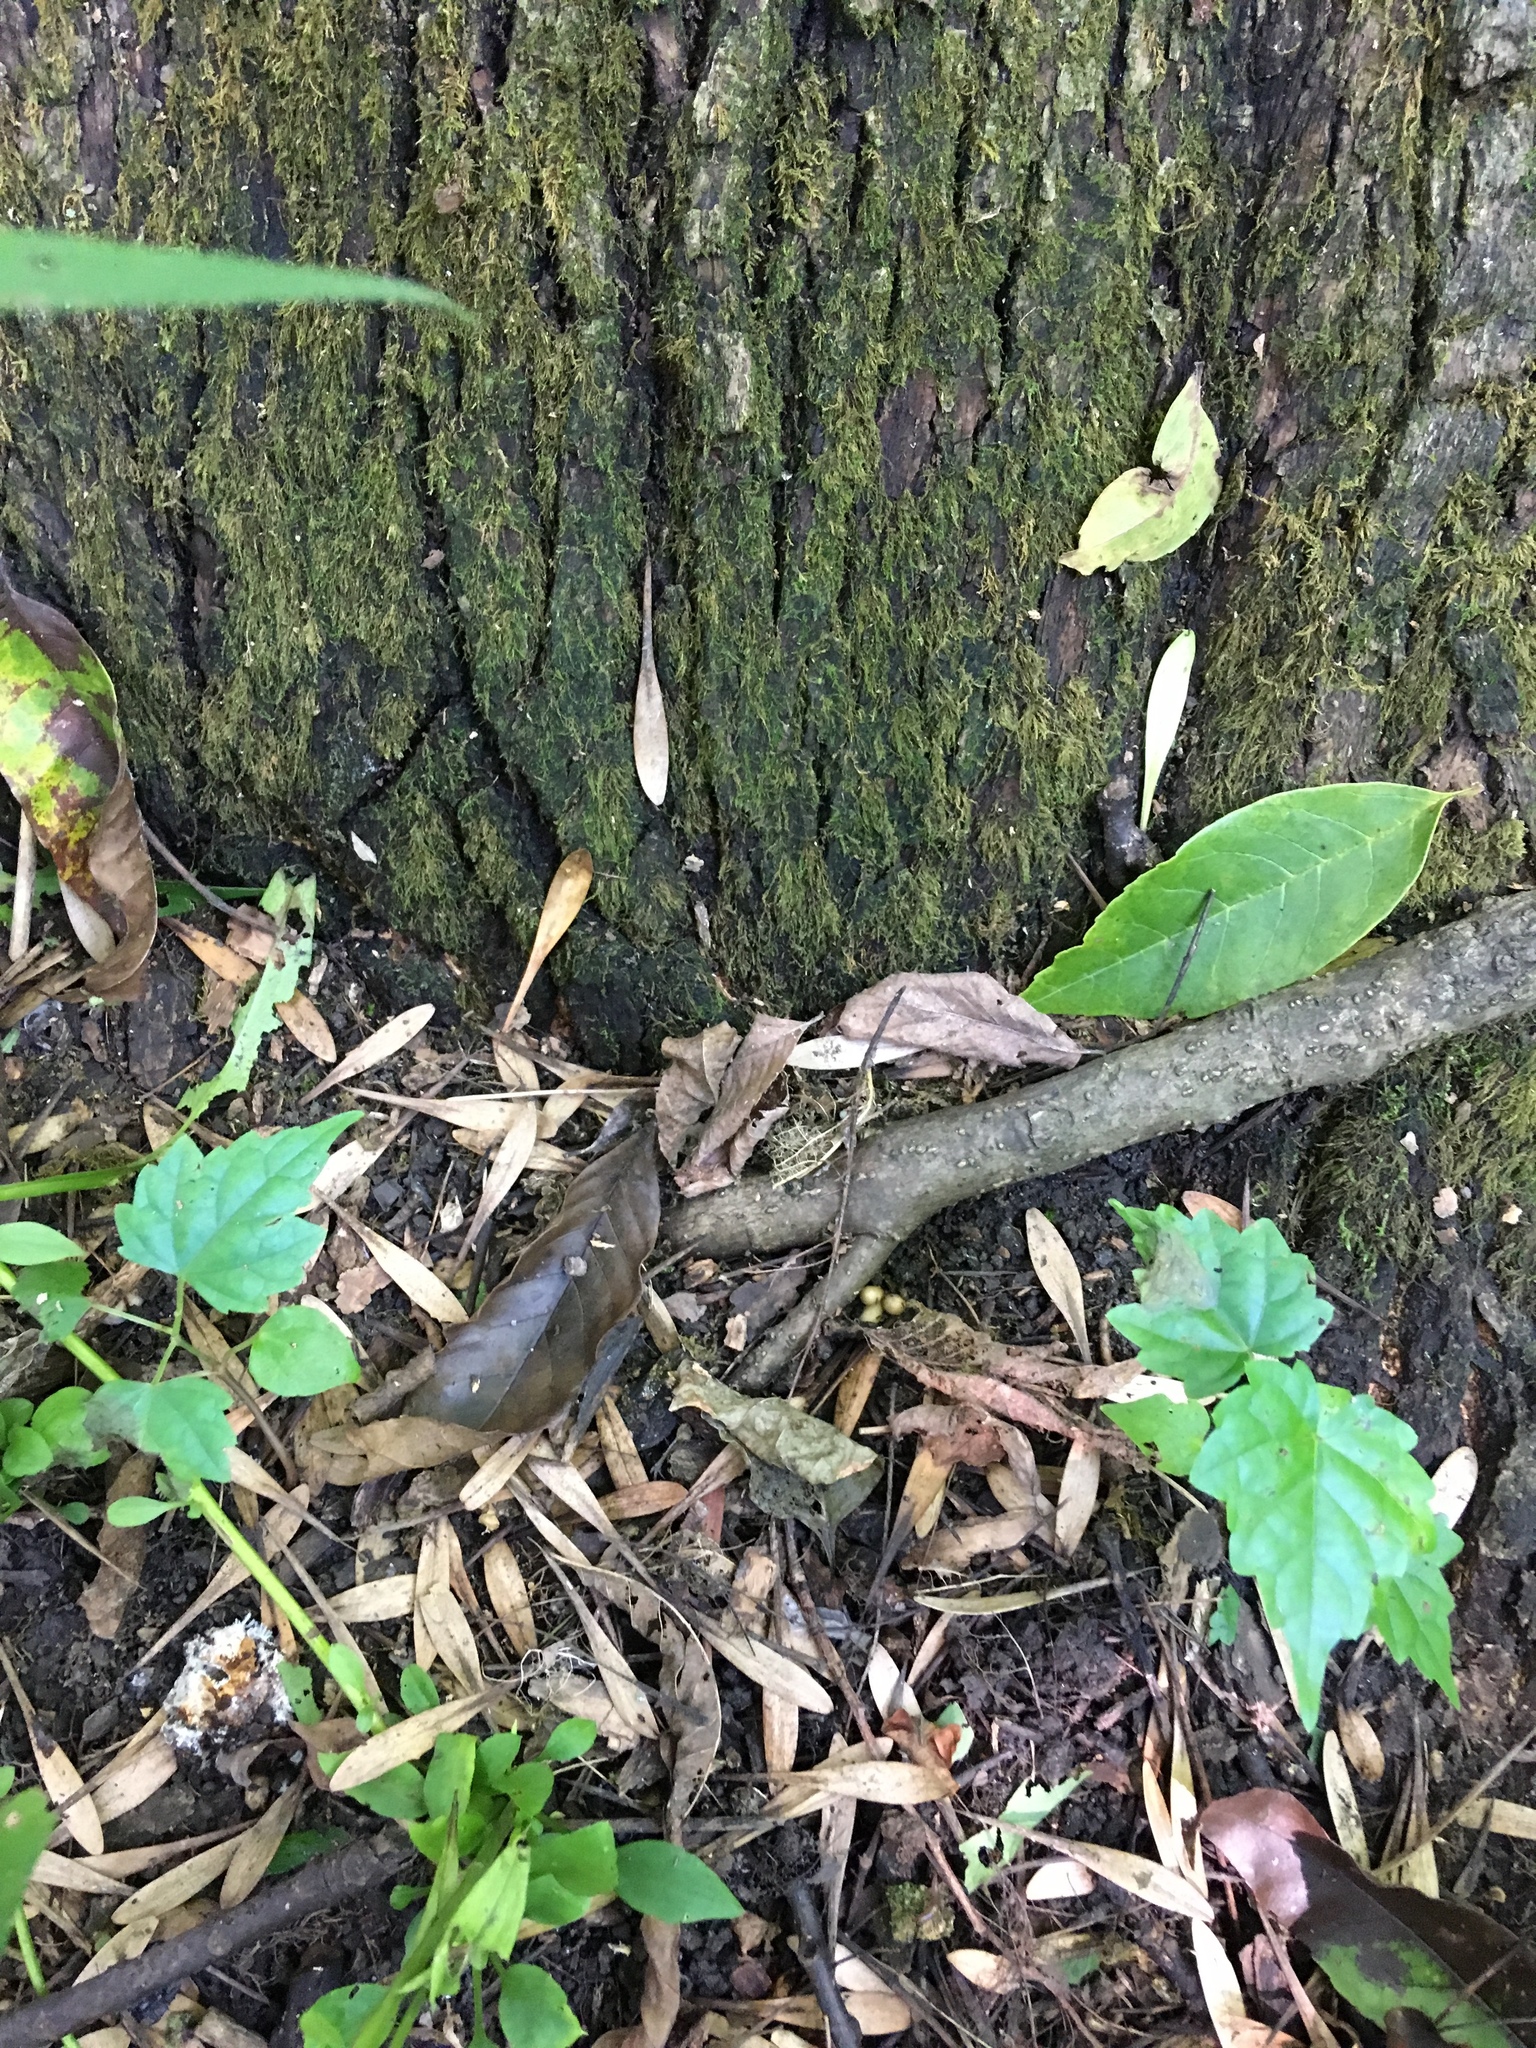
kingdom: Plantae
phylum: Tracheophyta
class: Magnoliopsida
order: Lamiales
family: Oleaceae
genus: Fraxinus
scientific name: Fraxinus pennsylvanica
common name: Green ash
